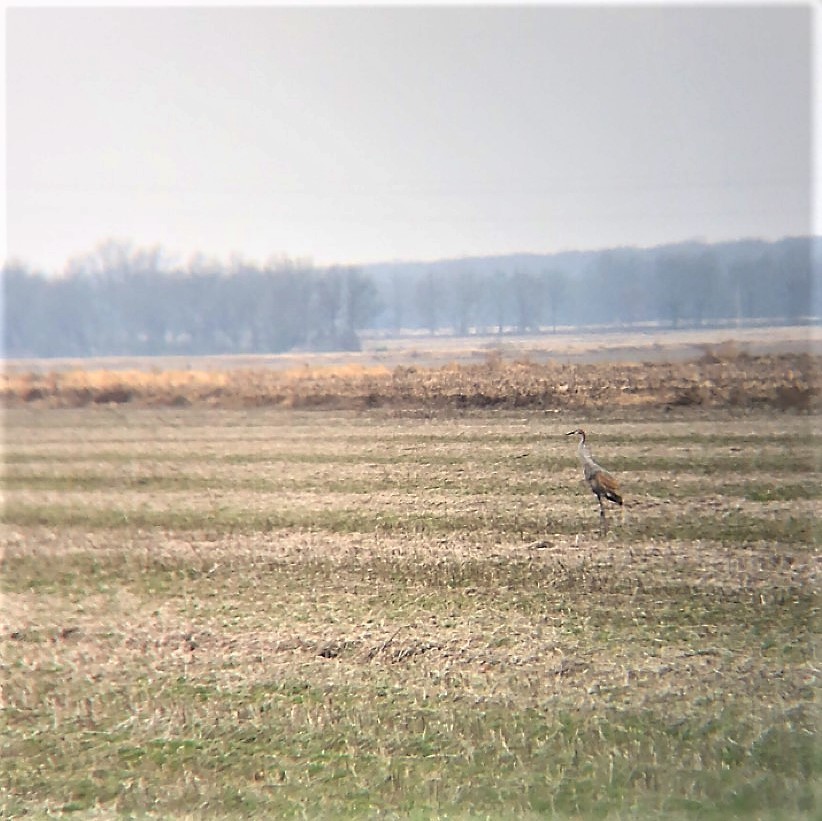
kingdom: Animalia
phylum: Chordata
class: Aves
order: Gruiformes
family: Gruidae
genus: Grus
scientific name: Grus canadensis
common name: Sandhill crane
